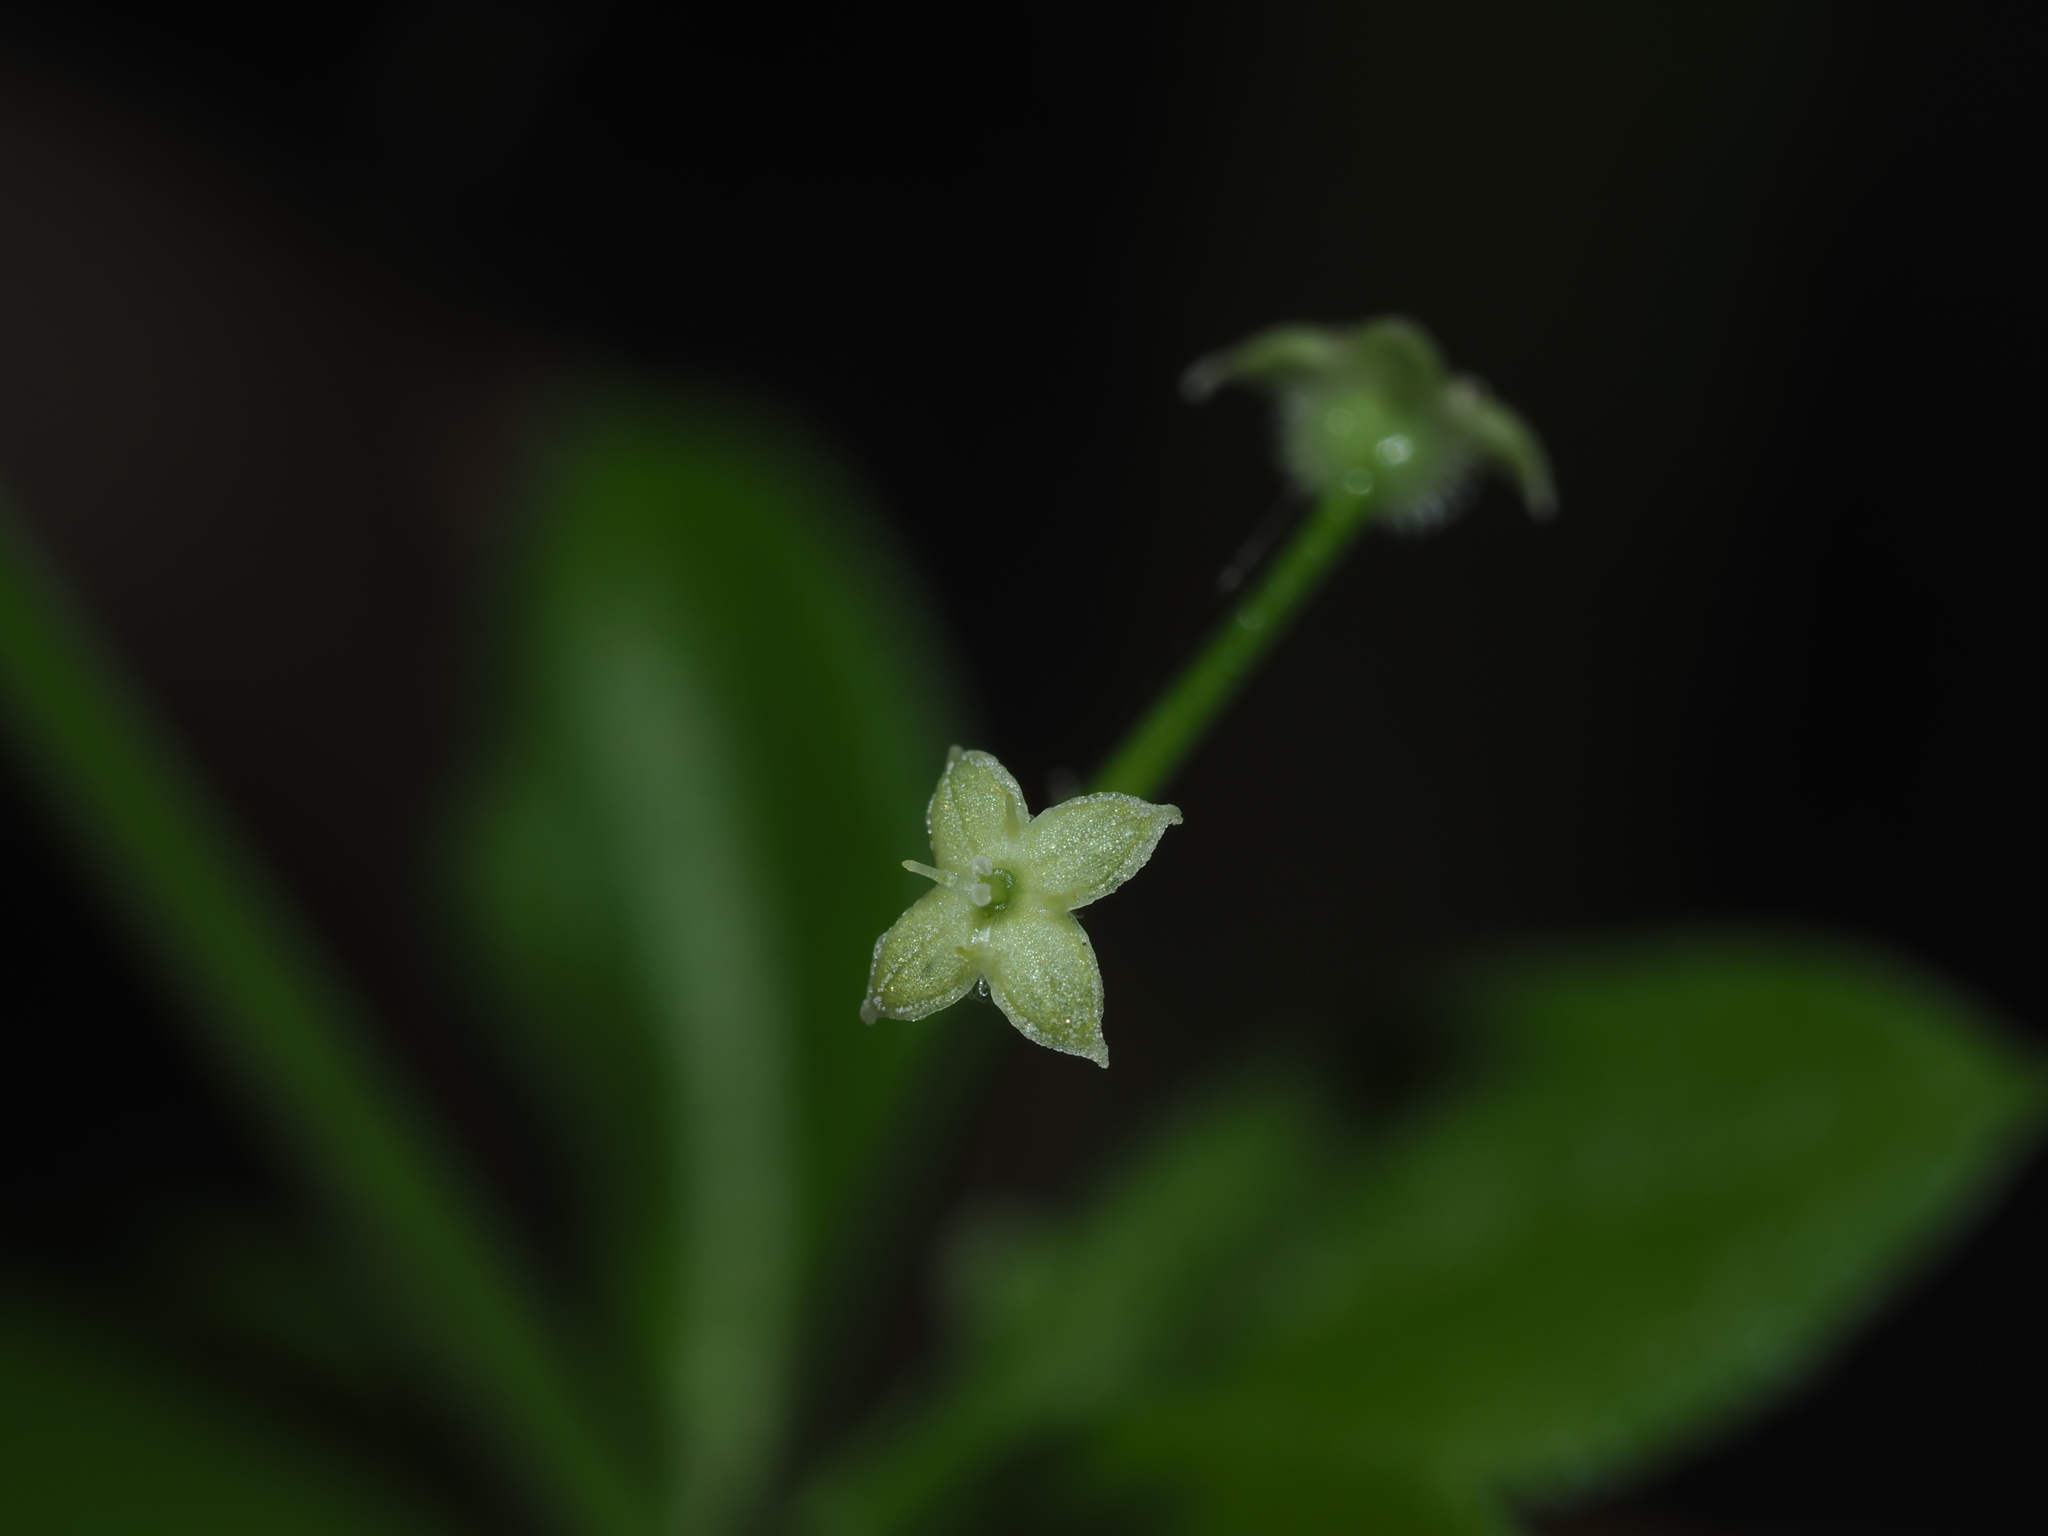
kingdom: Plantae
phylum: Tracheophyta
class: Magnoliopsida
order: Gentianales
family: Rubiaceae
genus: Galium
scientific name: Galium triflorum
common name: Fragrant bedstraw
